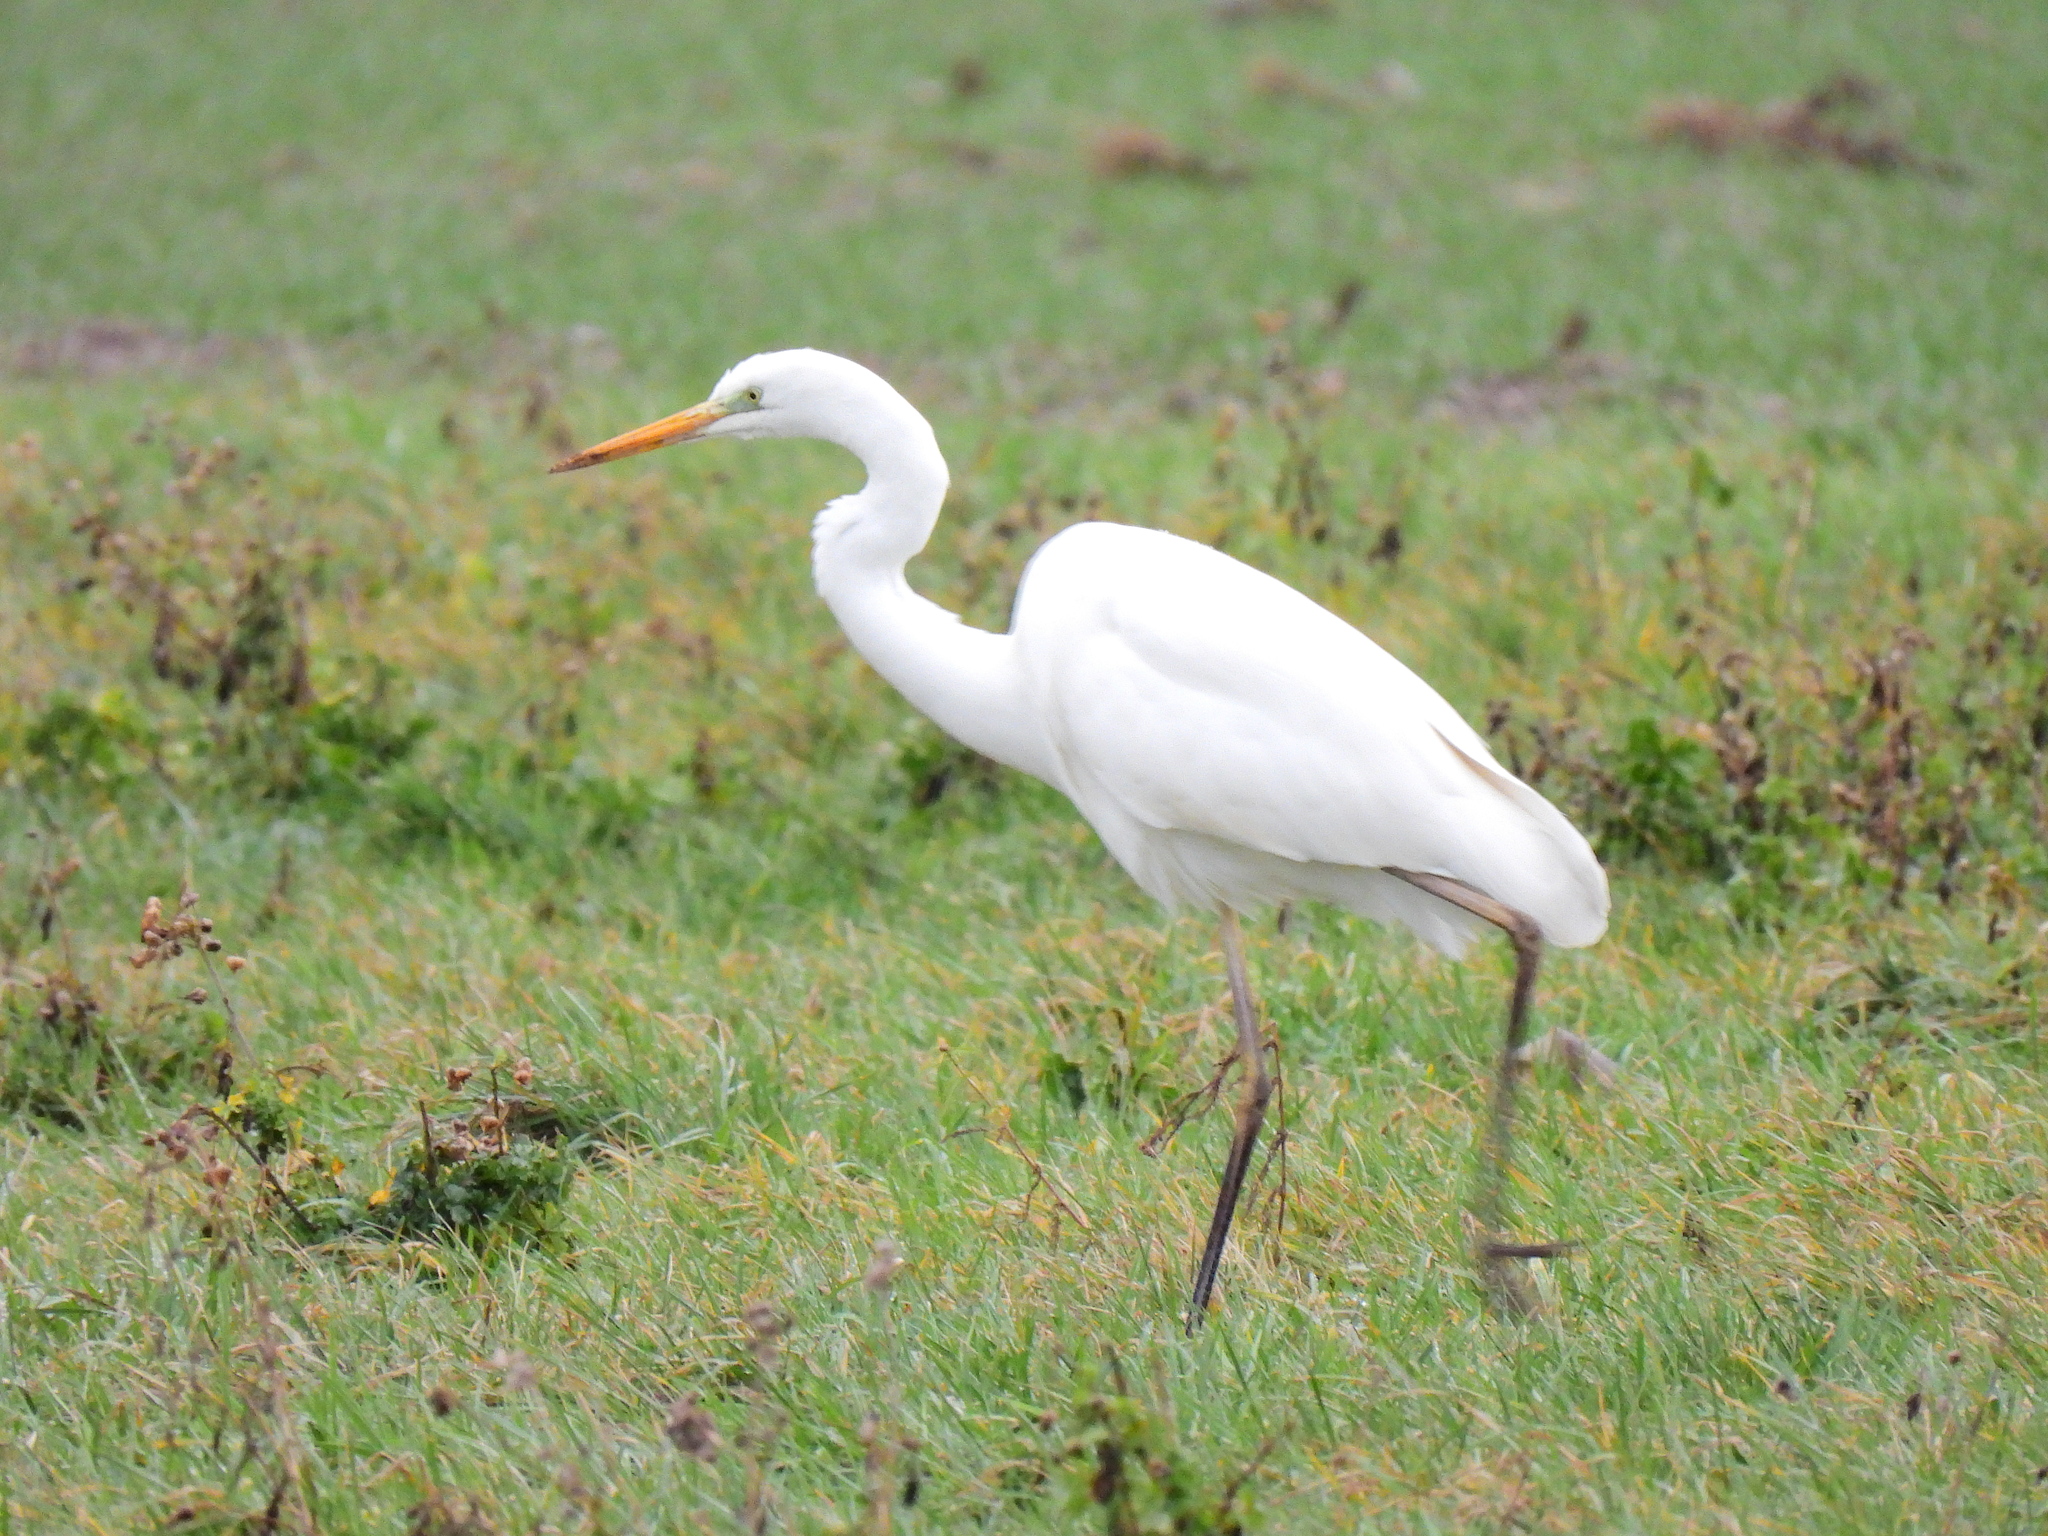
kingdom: Animalia
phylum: Chordata
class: Aves
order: Pelecaniformes
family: Ardeidae
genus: Ardea
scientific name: Ardea alba
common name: Great egret
